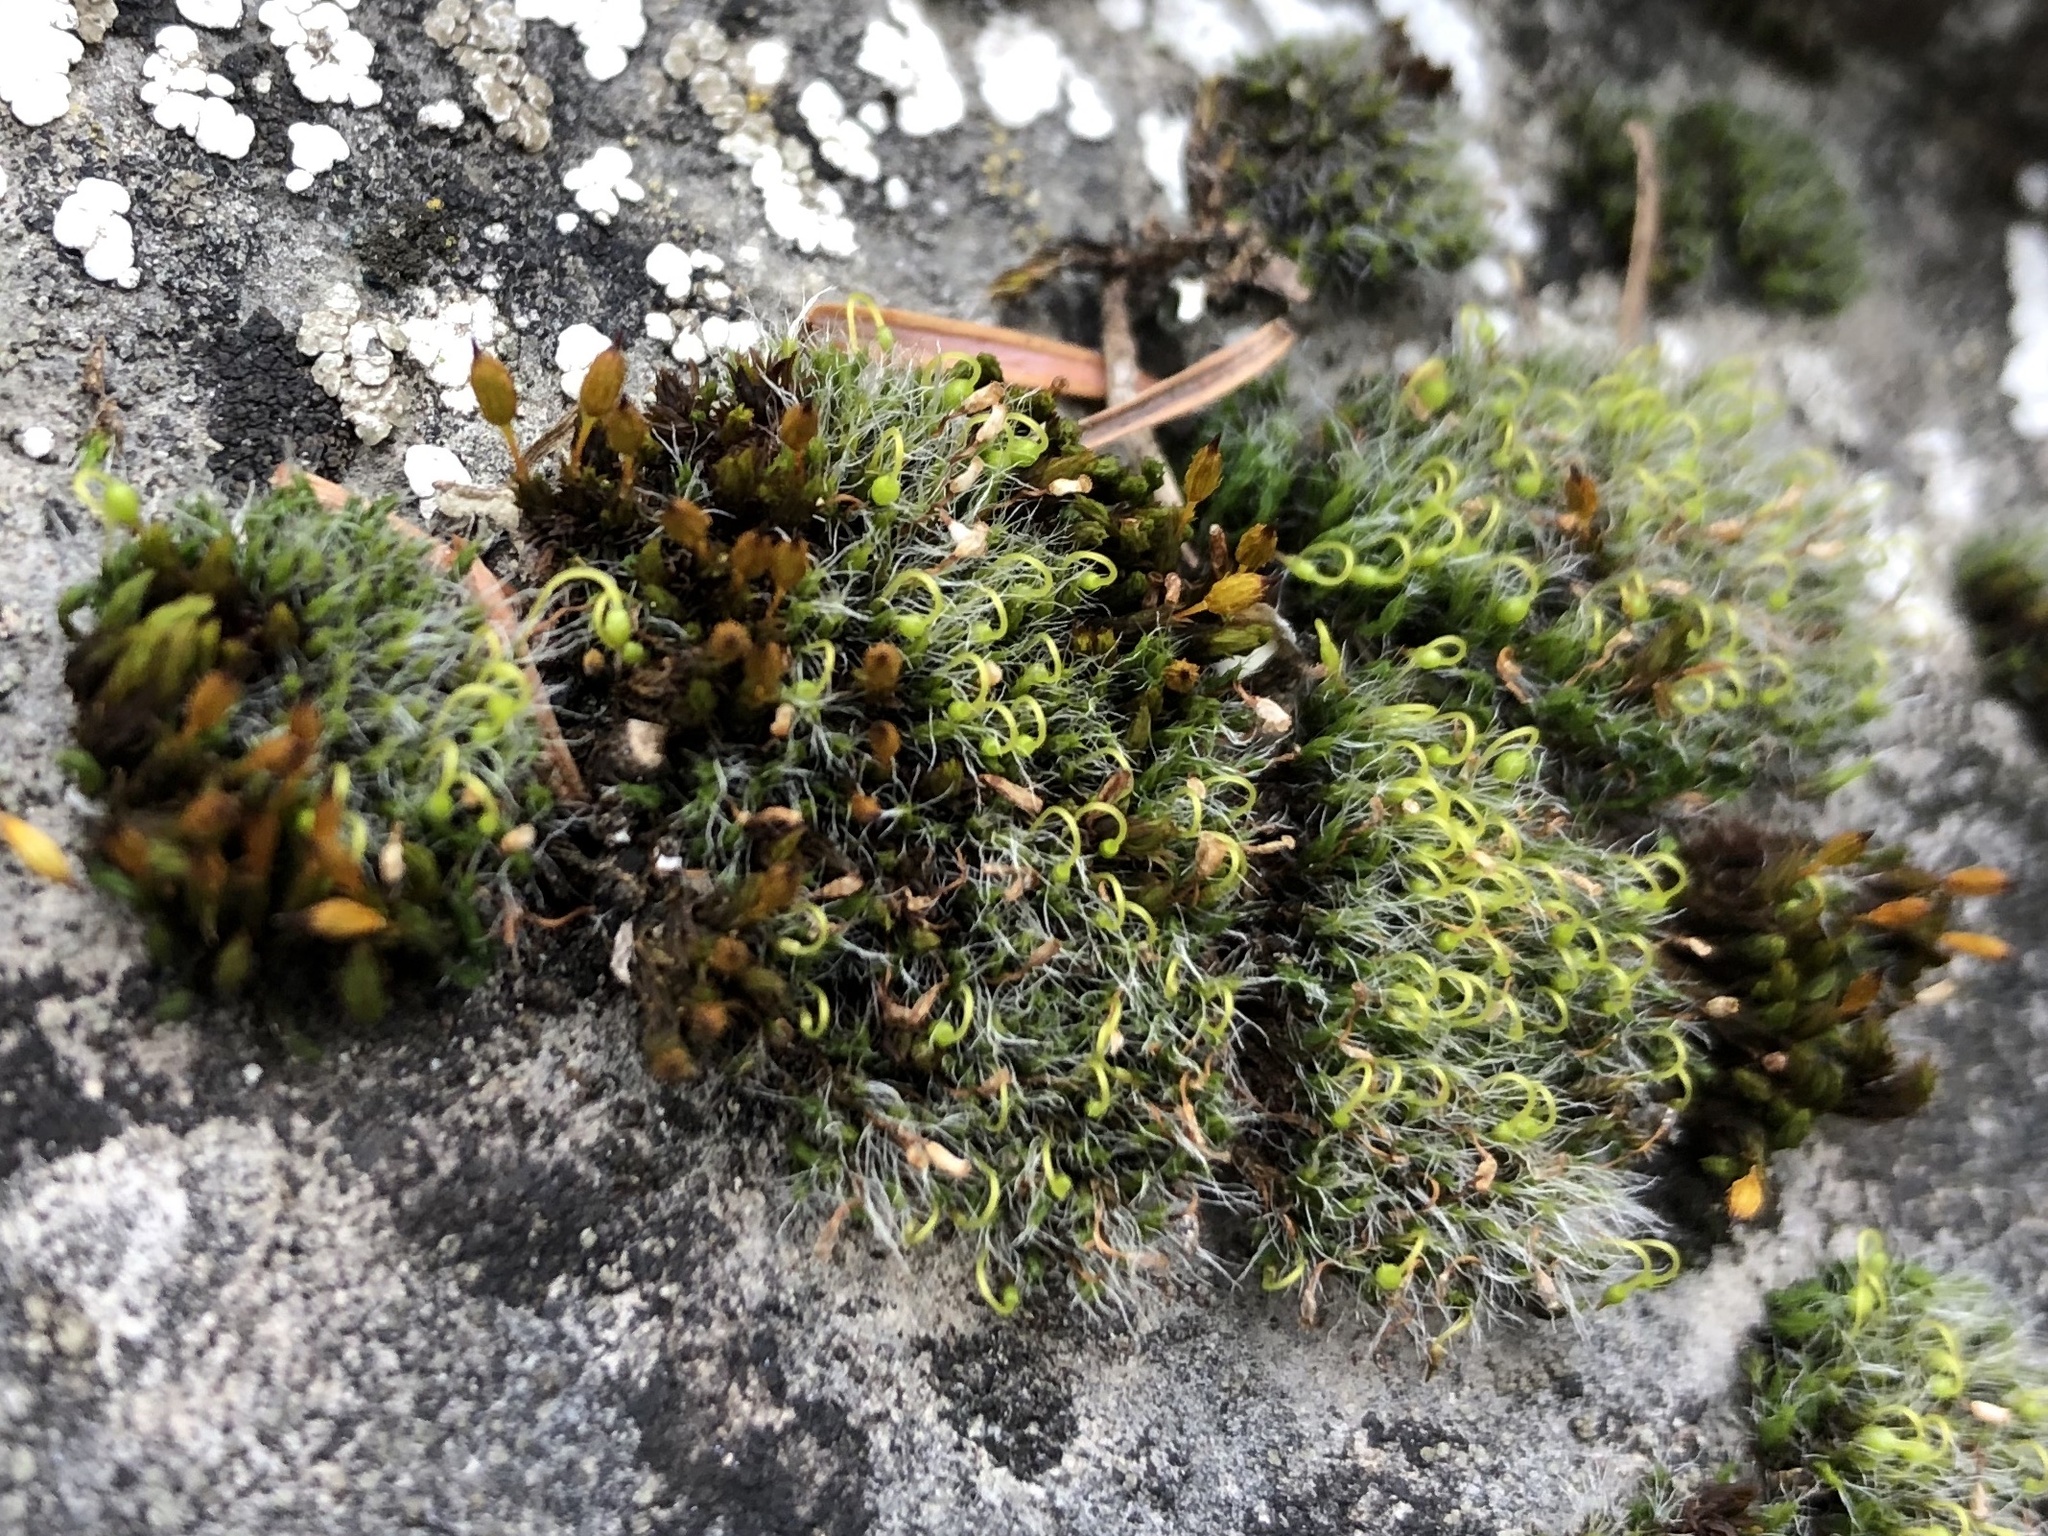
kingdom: Plantae
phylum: Bryophyta
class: Bryopsida
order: Grimmiales
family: Grimmiaceae
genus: Grimmia
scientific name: Grimmia pulvinata
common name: Grey-cushioned grimmia
